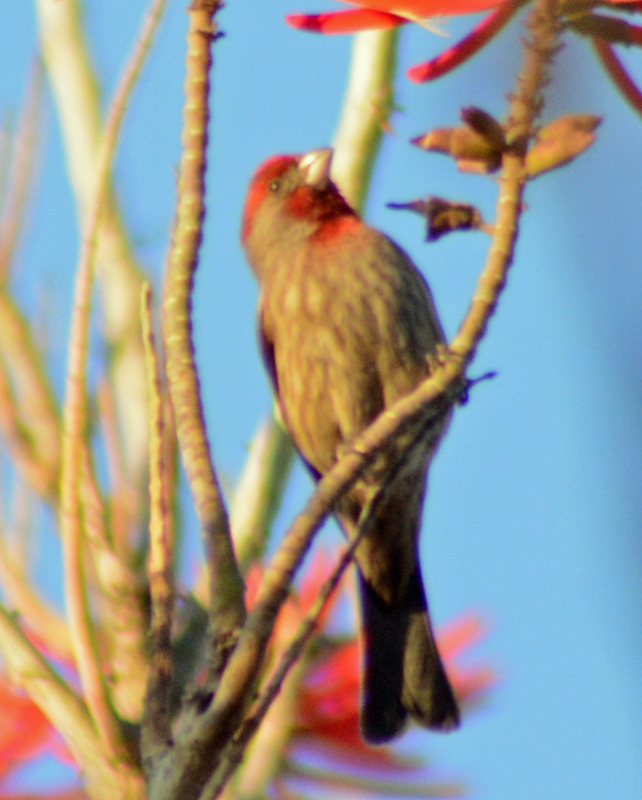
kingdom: Animalia
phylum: Chordata
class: Aves
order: Passeriformes
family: Fringillidae
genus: Haemorhous
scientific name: Haemorhous mexicanus
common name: House finch
